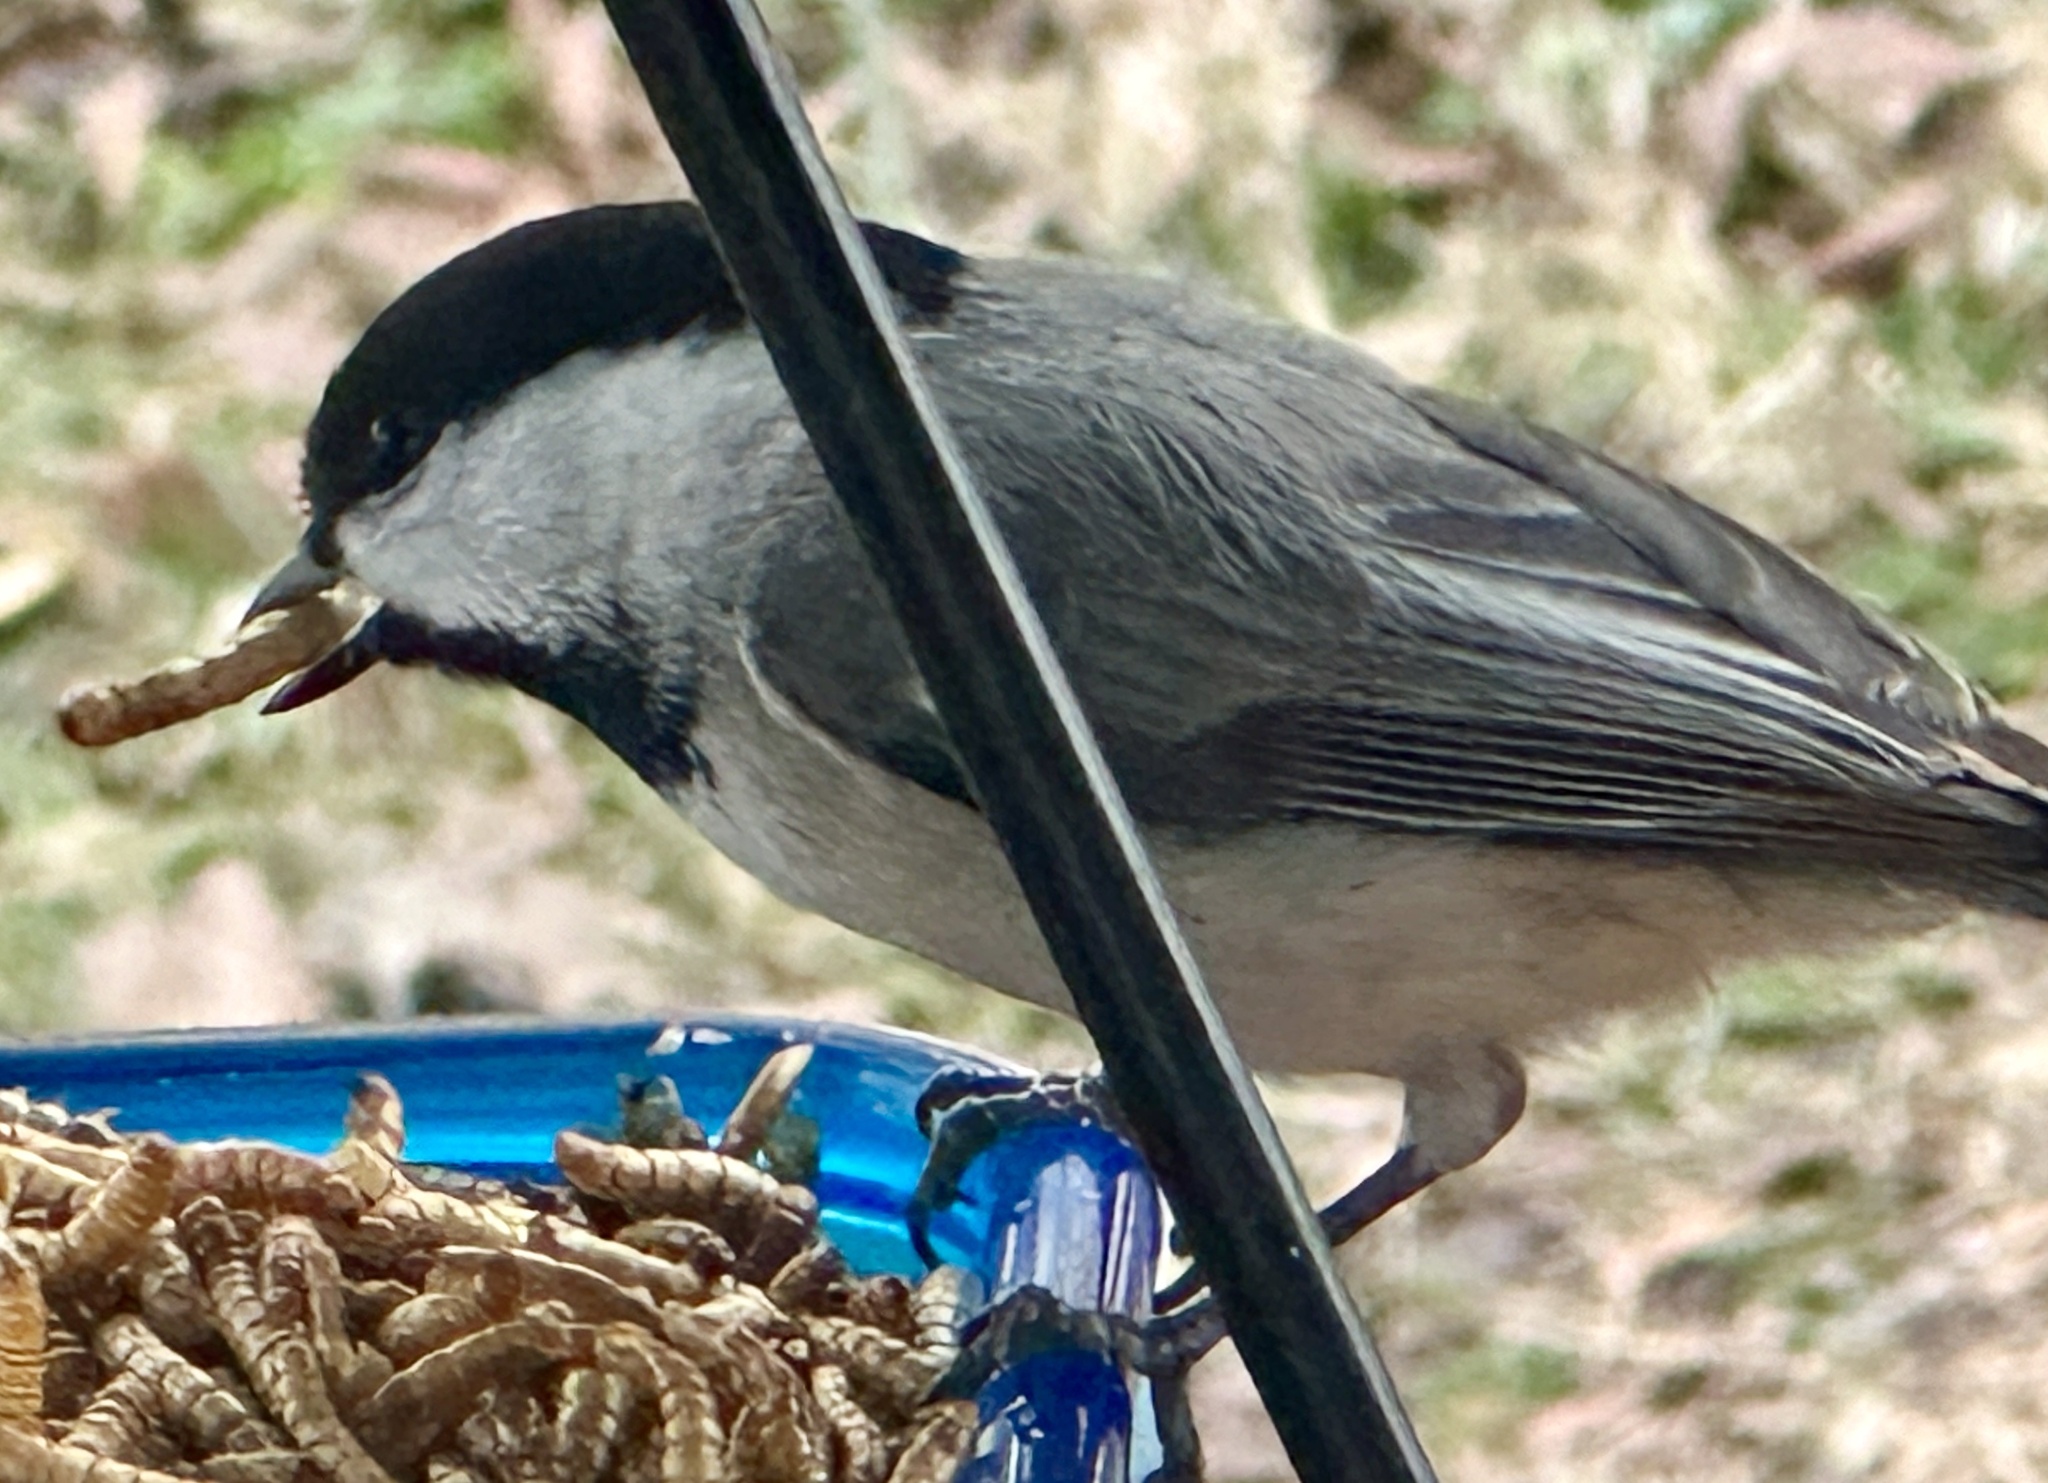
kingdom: Animalia
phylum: Chordata
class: Aves
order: Passeriformes
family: Paridae
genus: Poecile
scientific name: Poecile carolinensis
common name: Carolina chickadee
